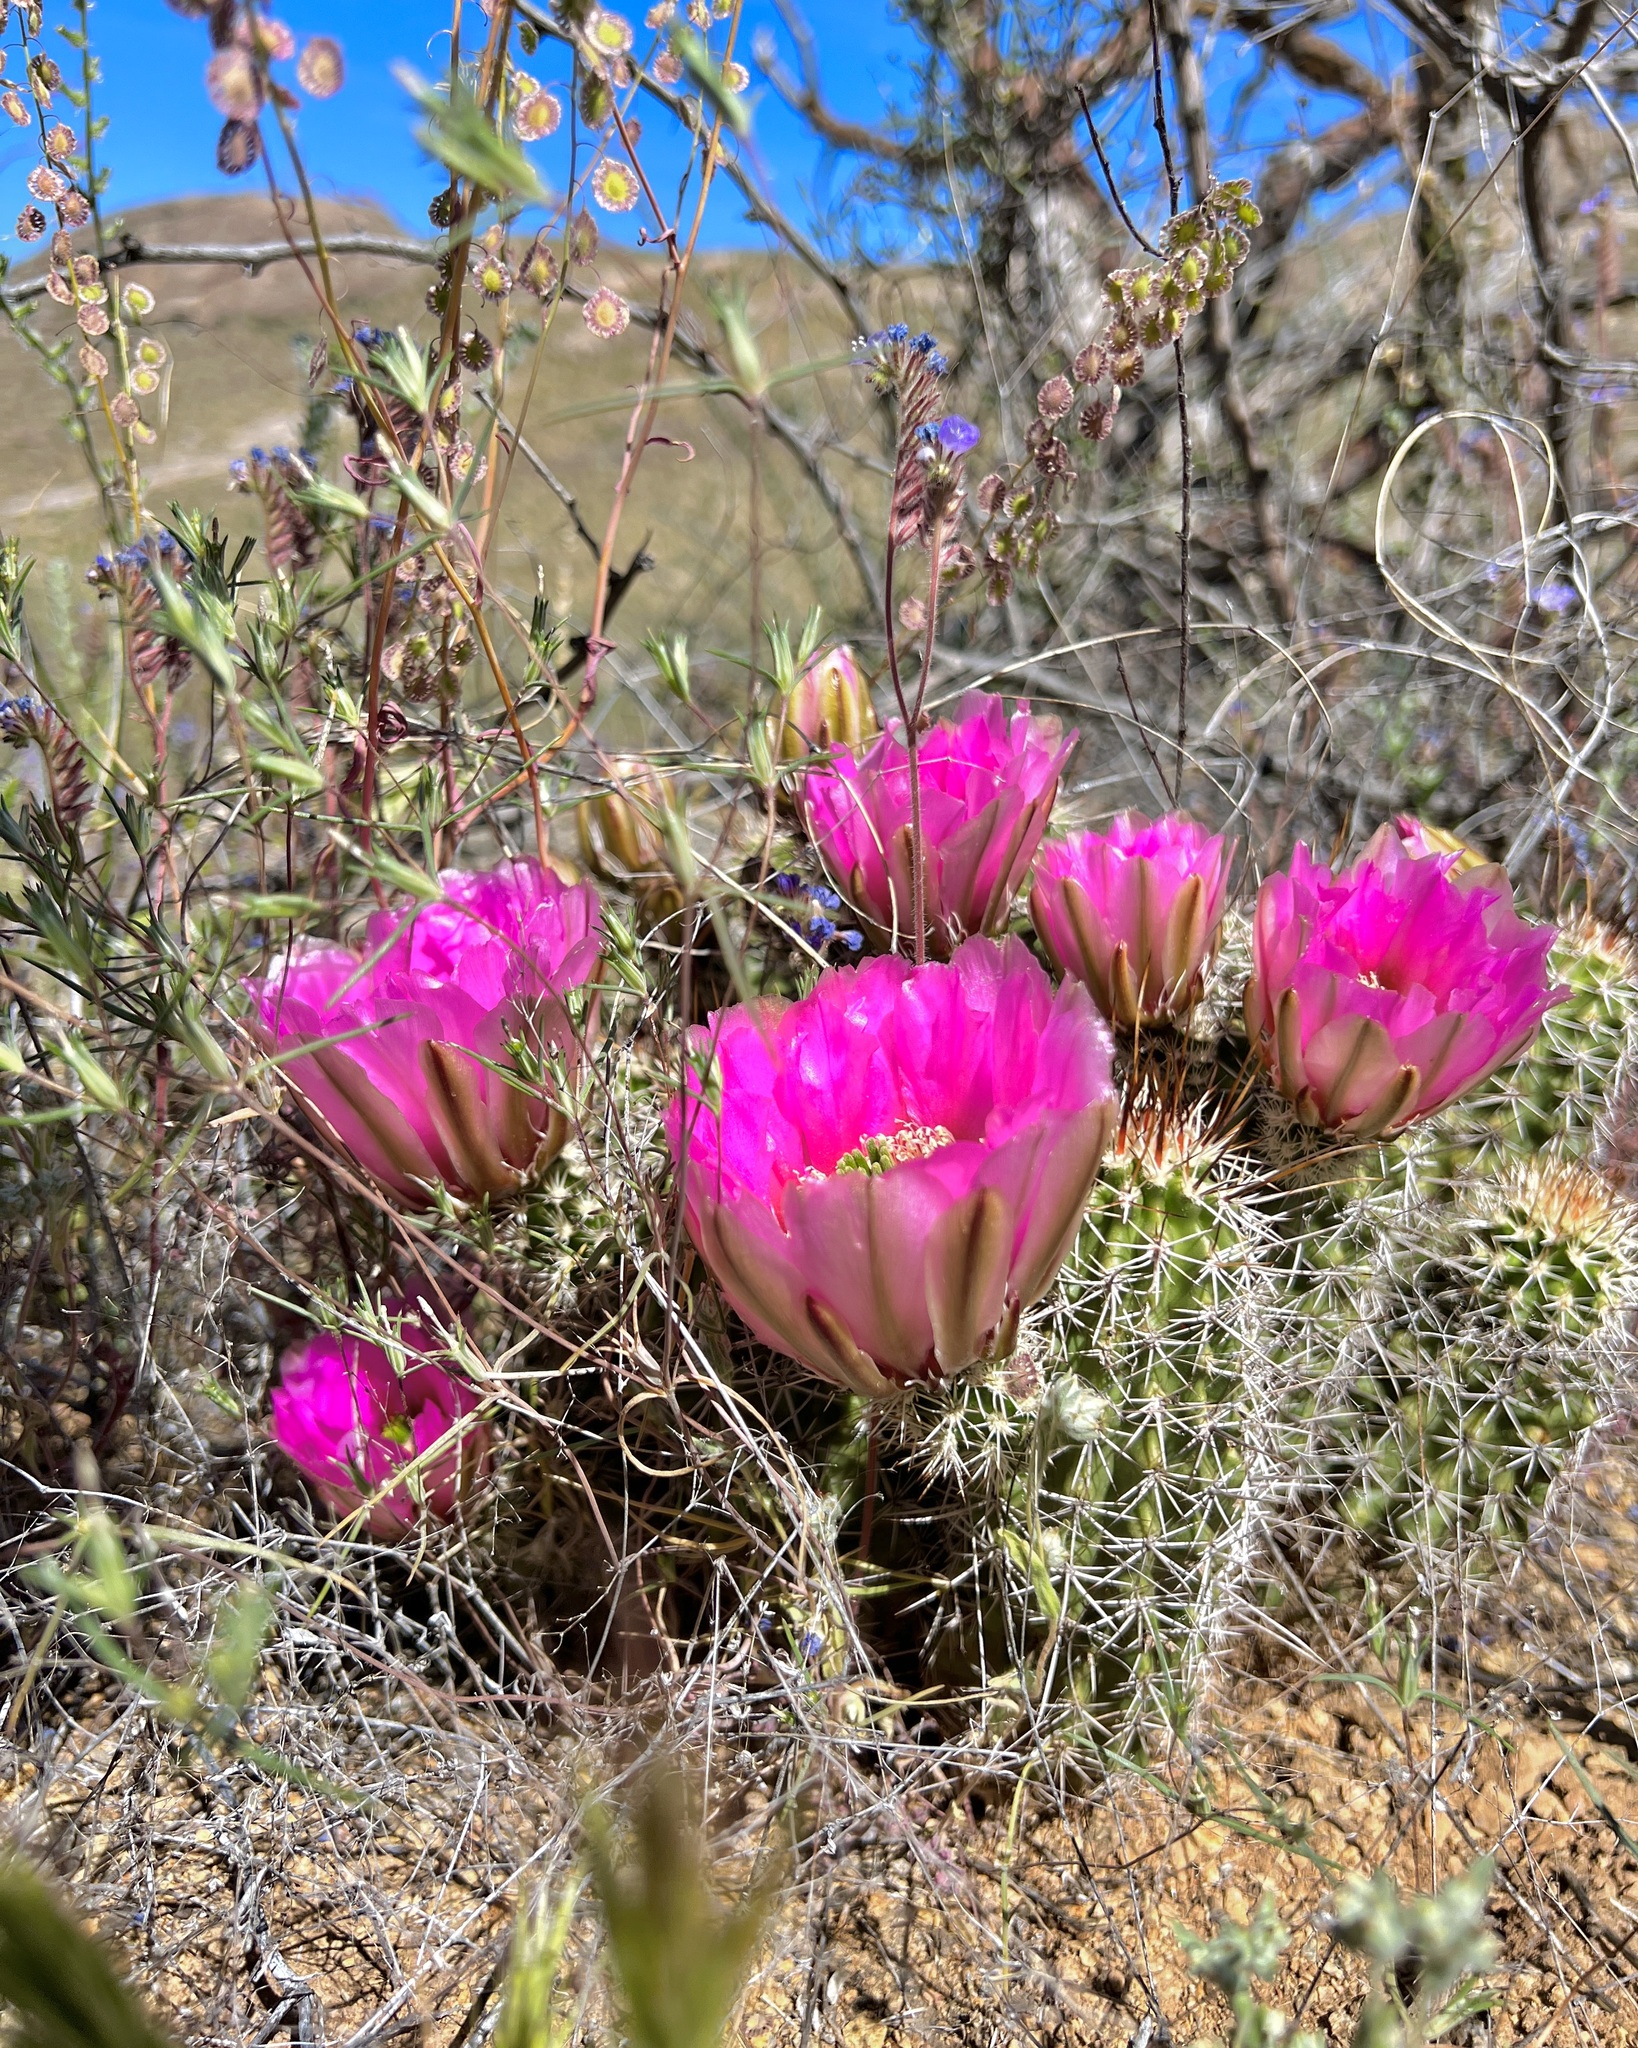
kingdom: Plantae
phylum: Tracheophyta
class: Magnoliopsida
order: Caryophyllales
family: Cactaceae
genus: Echinocereus
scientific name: Echinocereus fasciculatus
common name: Bundle hedgehog
